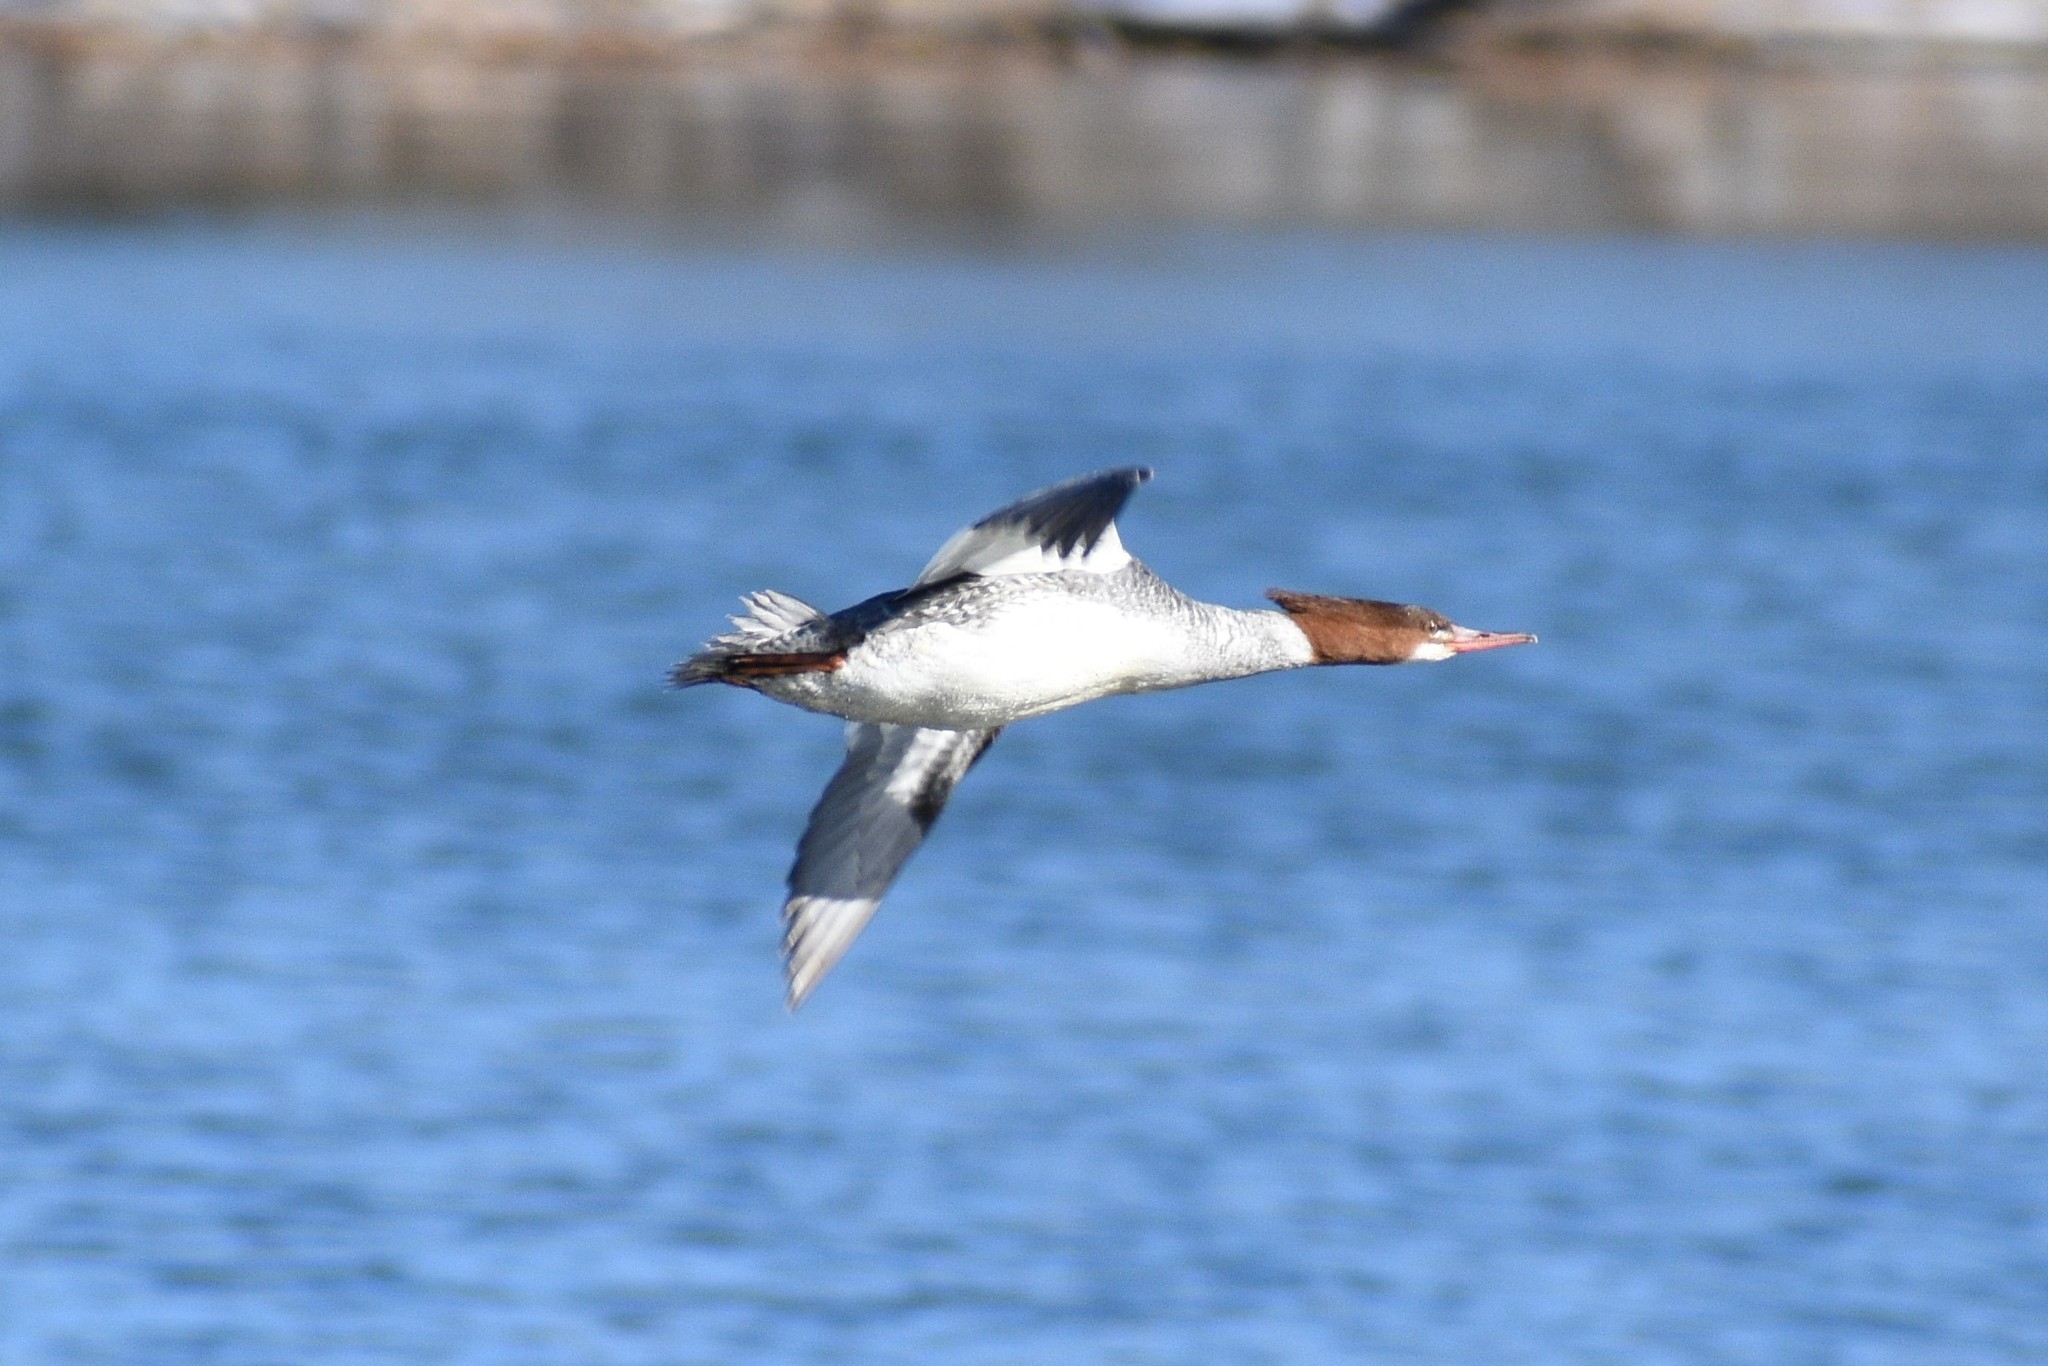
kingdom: Animalia
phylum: Chordata
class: Aves
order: Anseriformes
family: Anatidae
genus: Mergus
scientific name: Mergus merganser
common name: Common merganser
